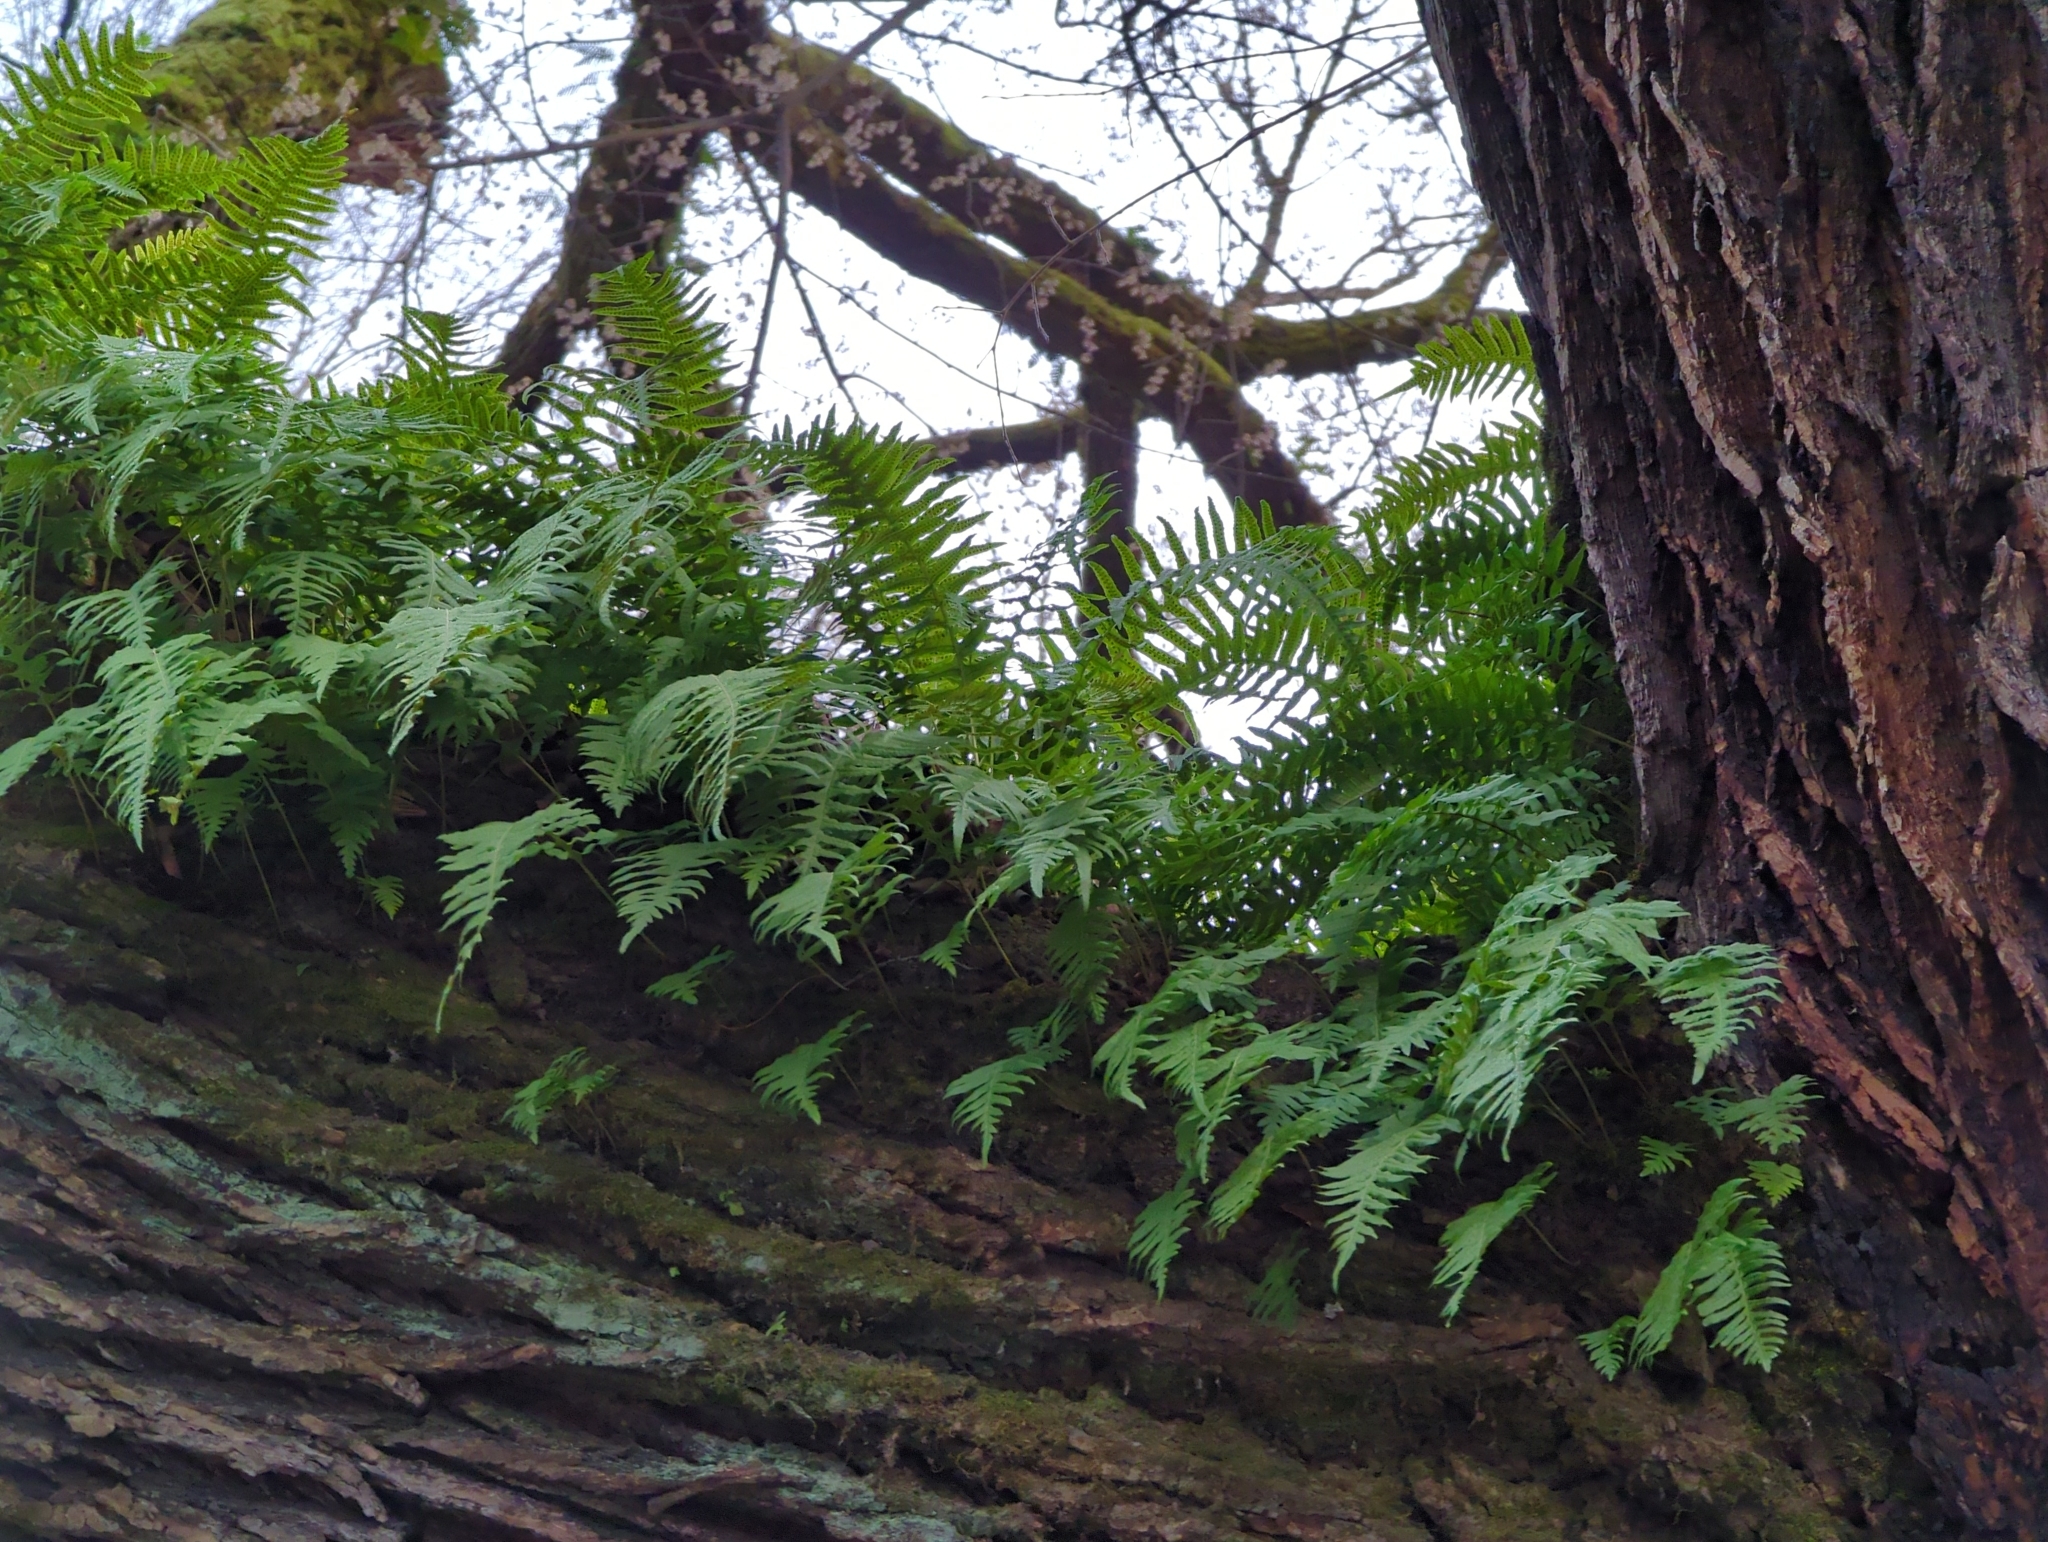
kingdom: Plantae
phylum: Tracheophyta
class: Polypodiopsida
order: Polypodiales
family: Polypodiaceae
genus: Polypodium
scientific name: Polypodium glycyrrhiza
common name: Licorice fern
